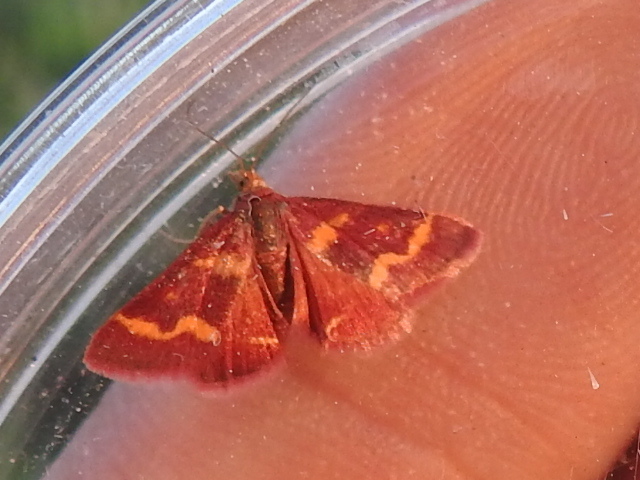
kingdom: Animalia
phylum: Arthropoda
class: Insecta
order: Lepidoptera
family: Crambidae
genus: Pyrausta
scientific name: Pyrausta tyralis
